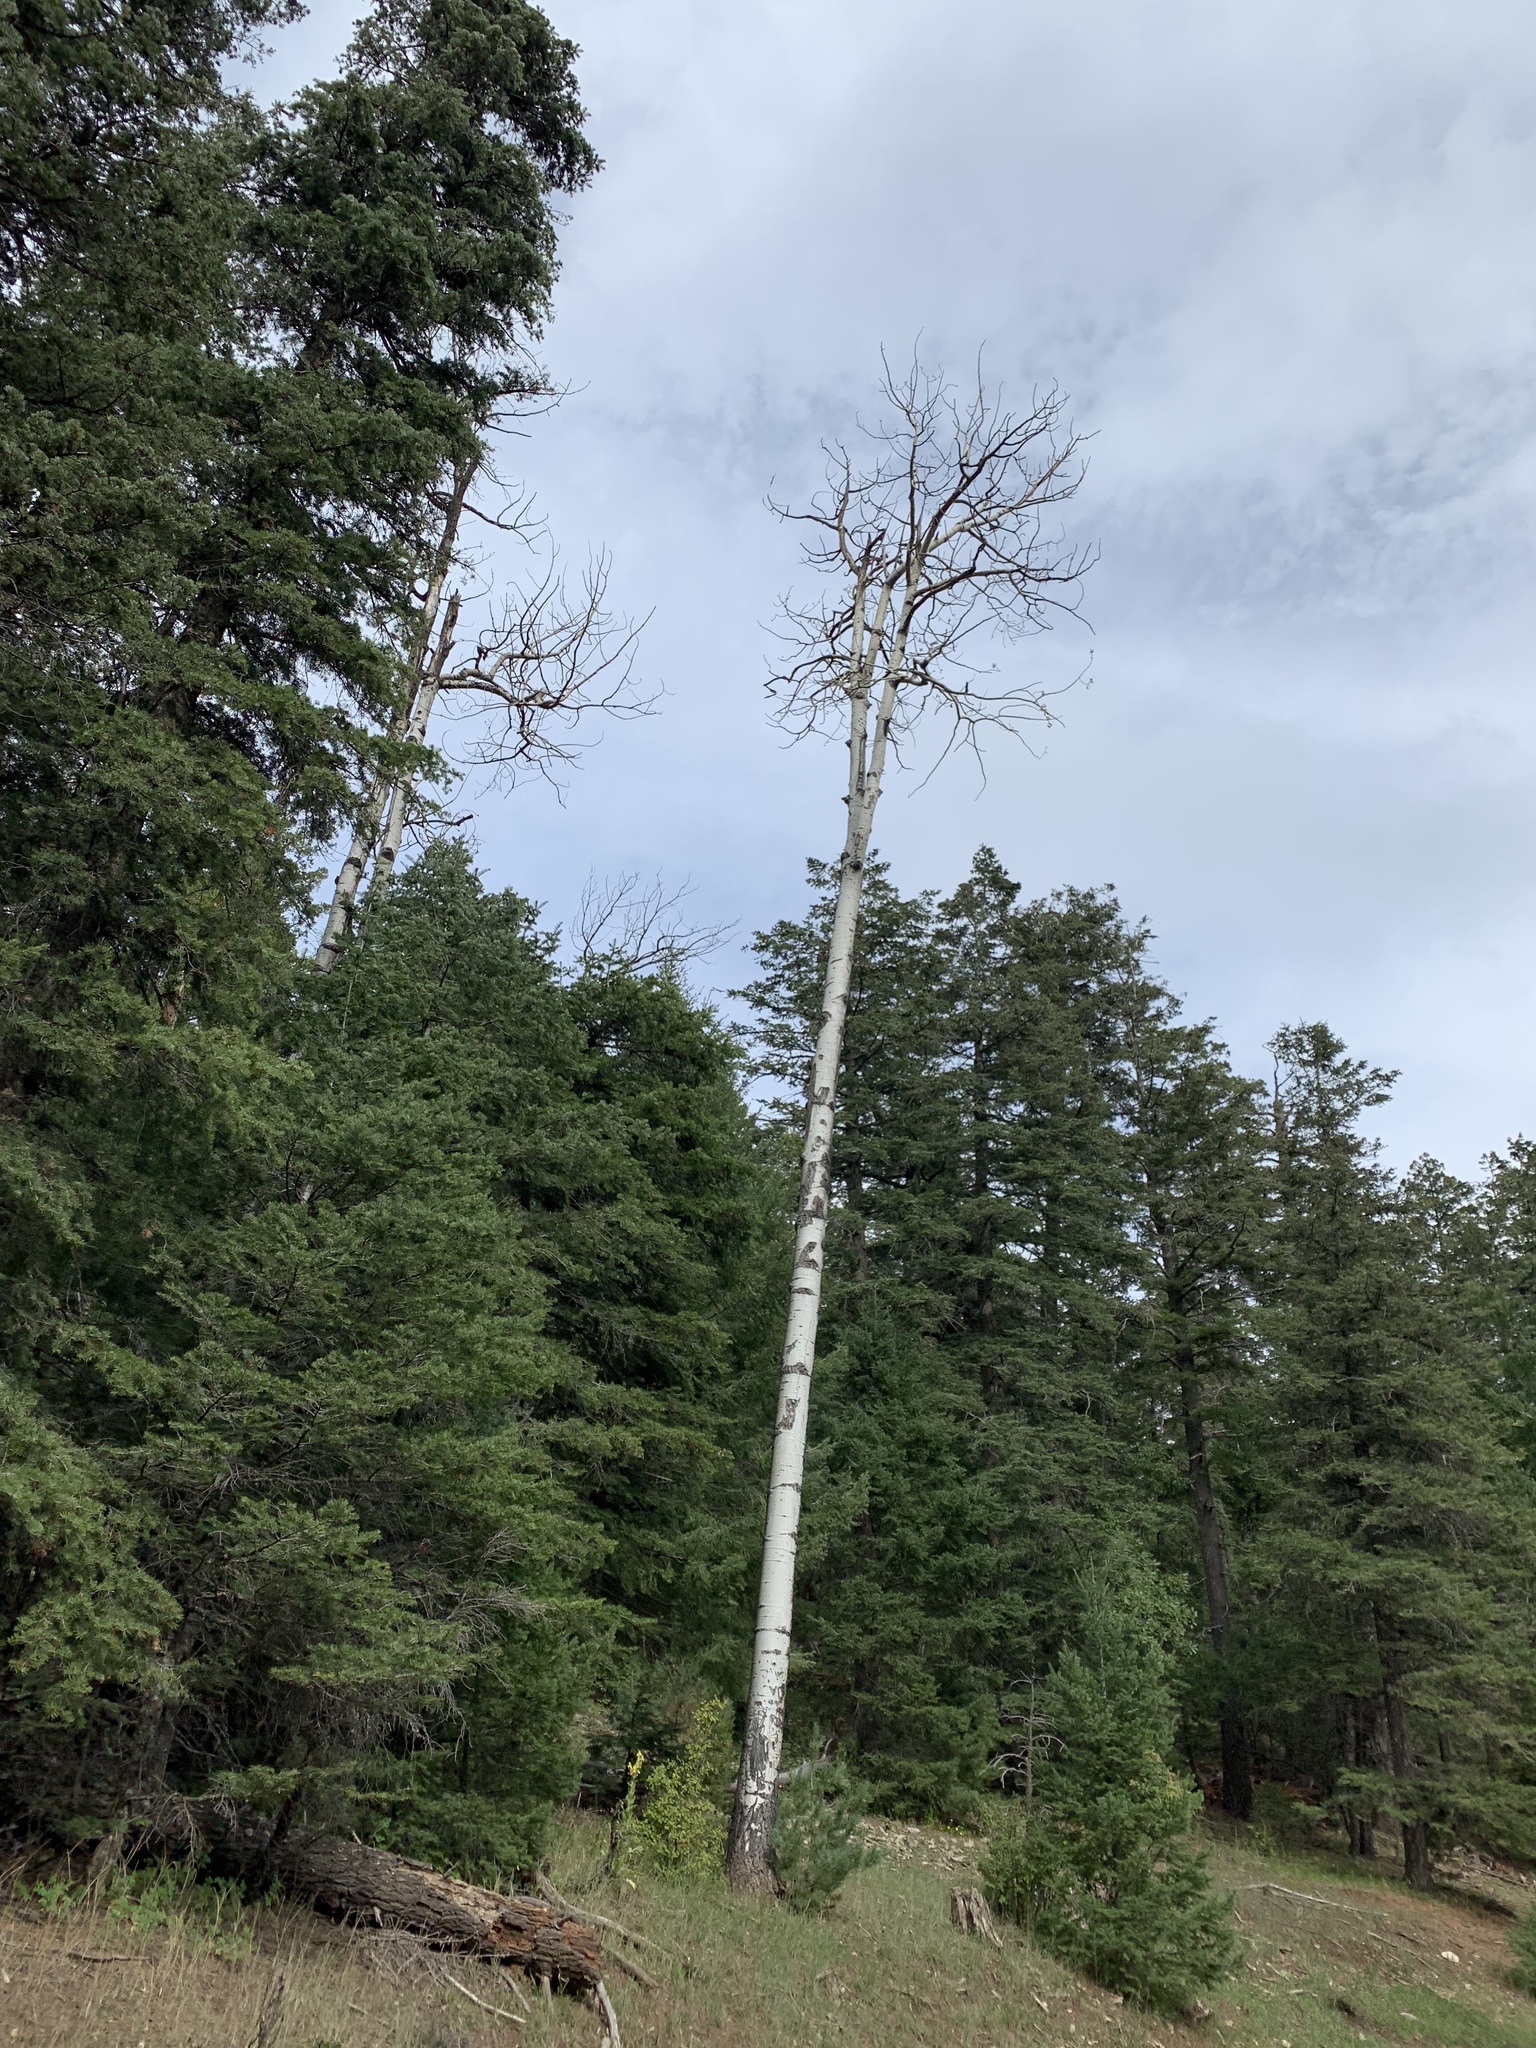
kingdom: Plantae
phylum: Tracheophyta
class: Magnoliopsida
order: Malpighiales
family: Salicaceae
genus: Populus
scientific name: Populus tremuloides
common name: Quaking aspen
